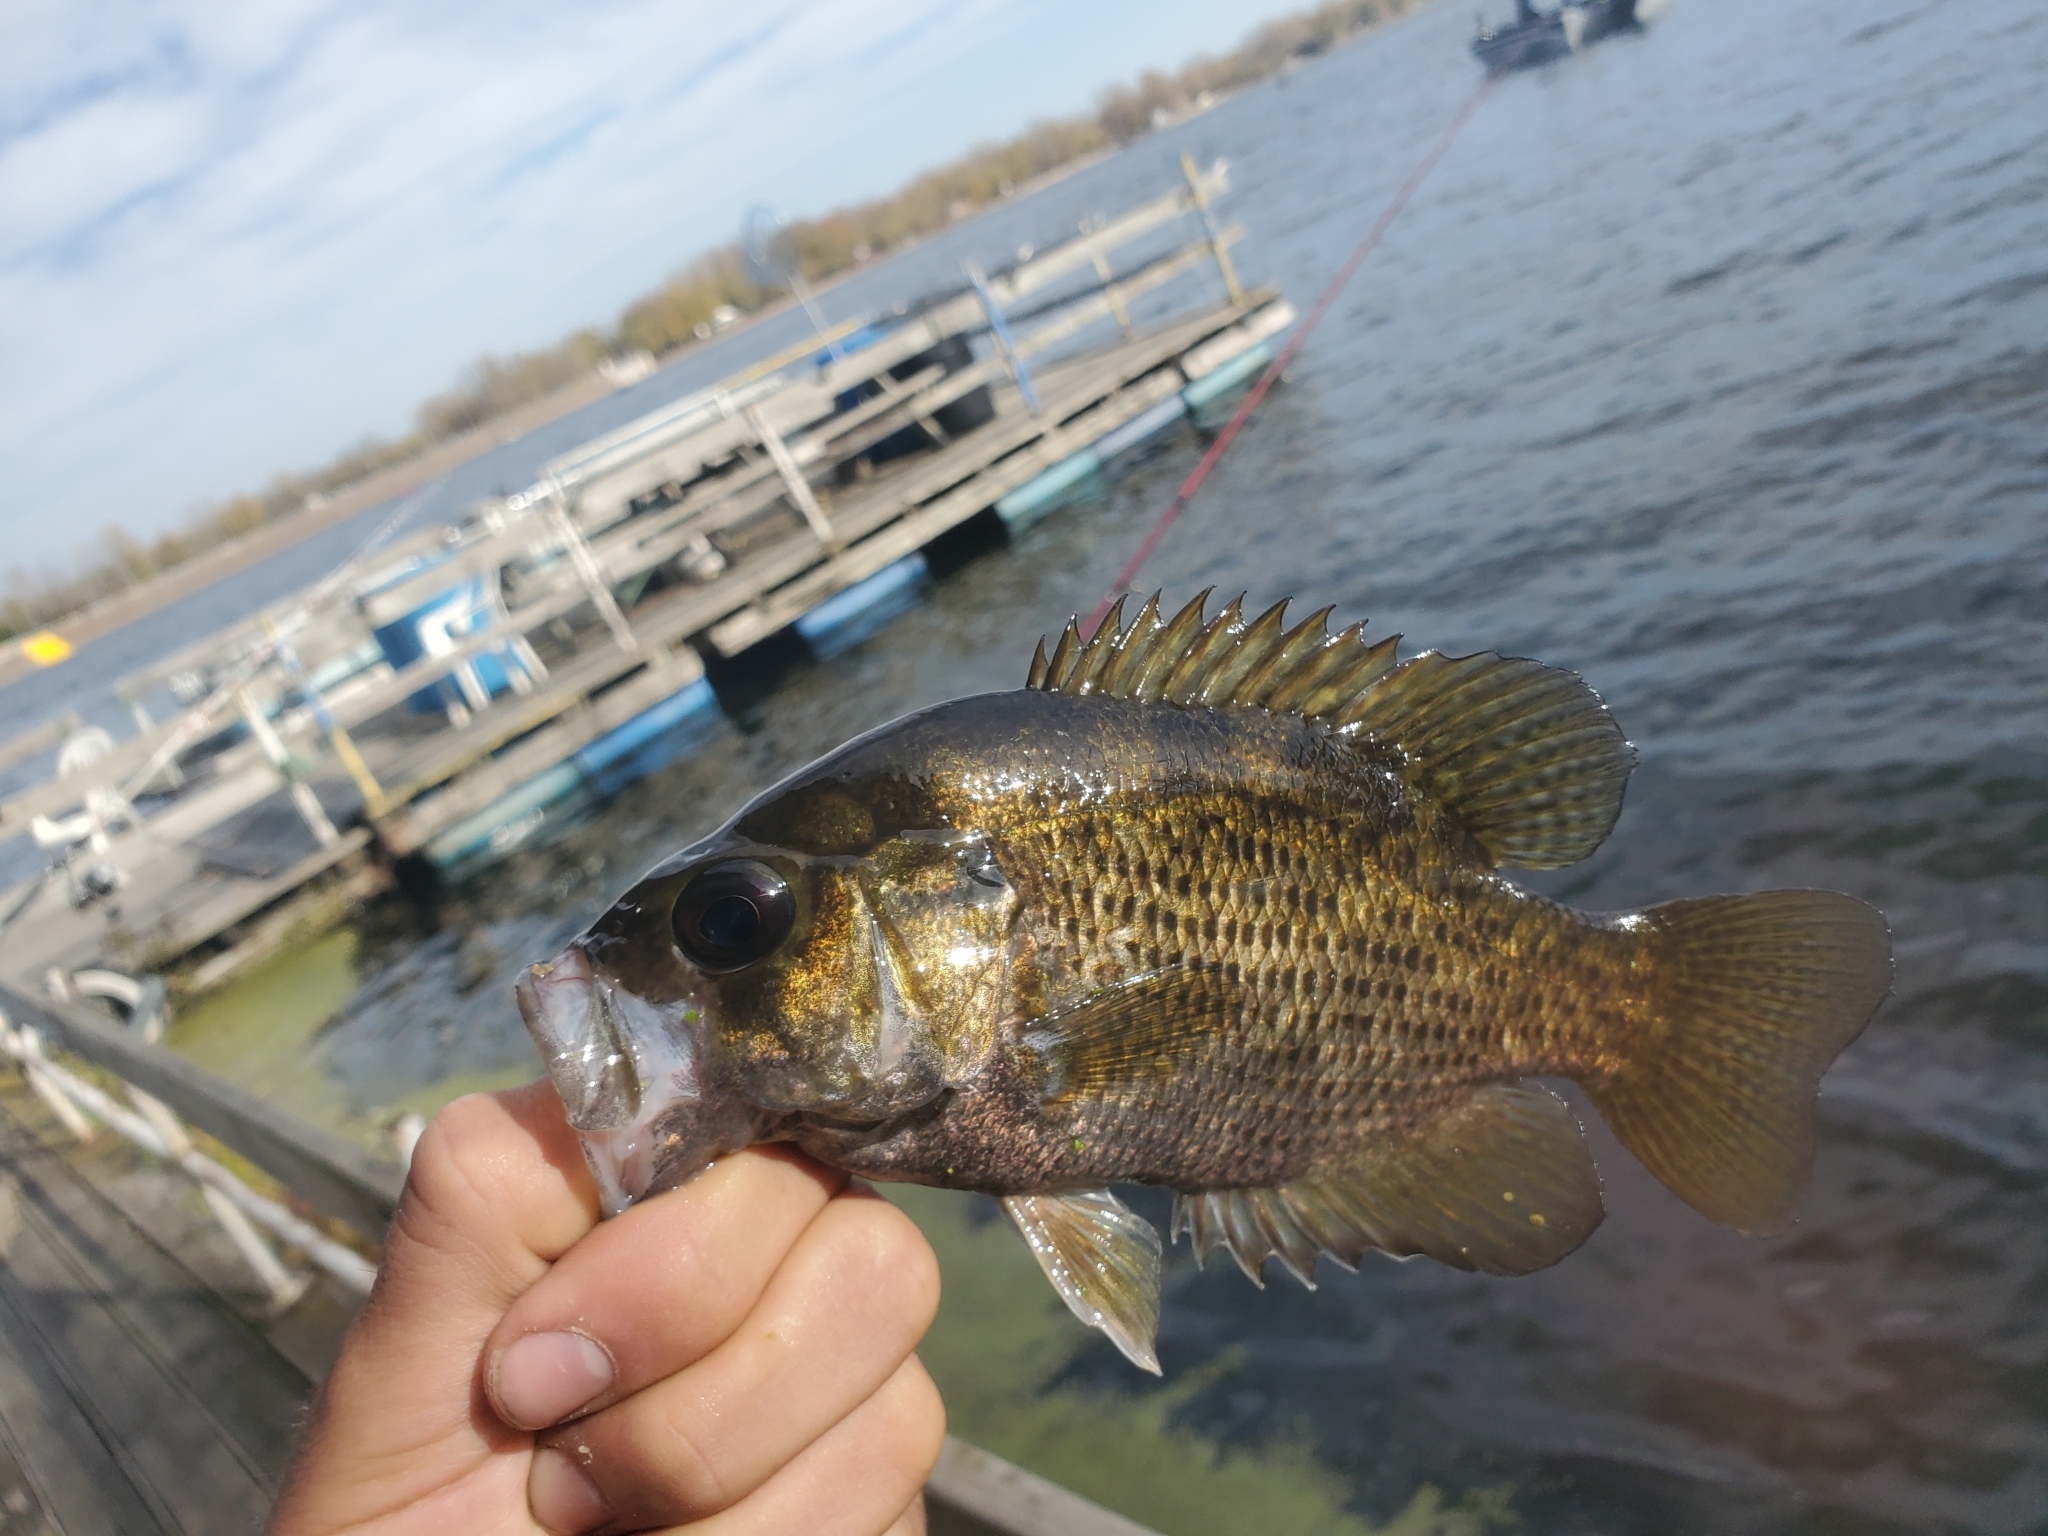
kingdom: Animalia
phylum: Chordata
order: Perciformes
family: Centrarchidae
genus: Ambloplites
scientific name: Ambloplites rupestris
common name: Rock bass
